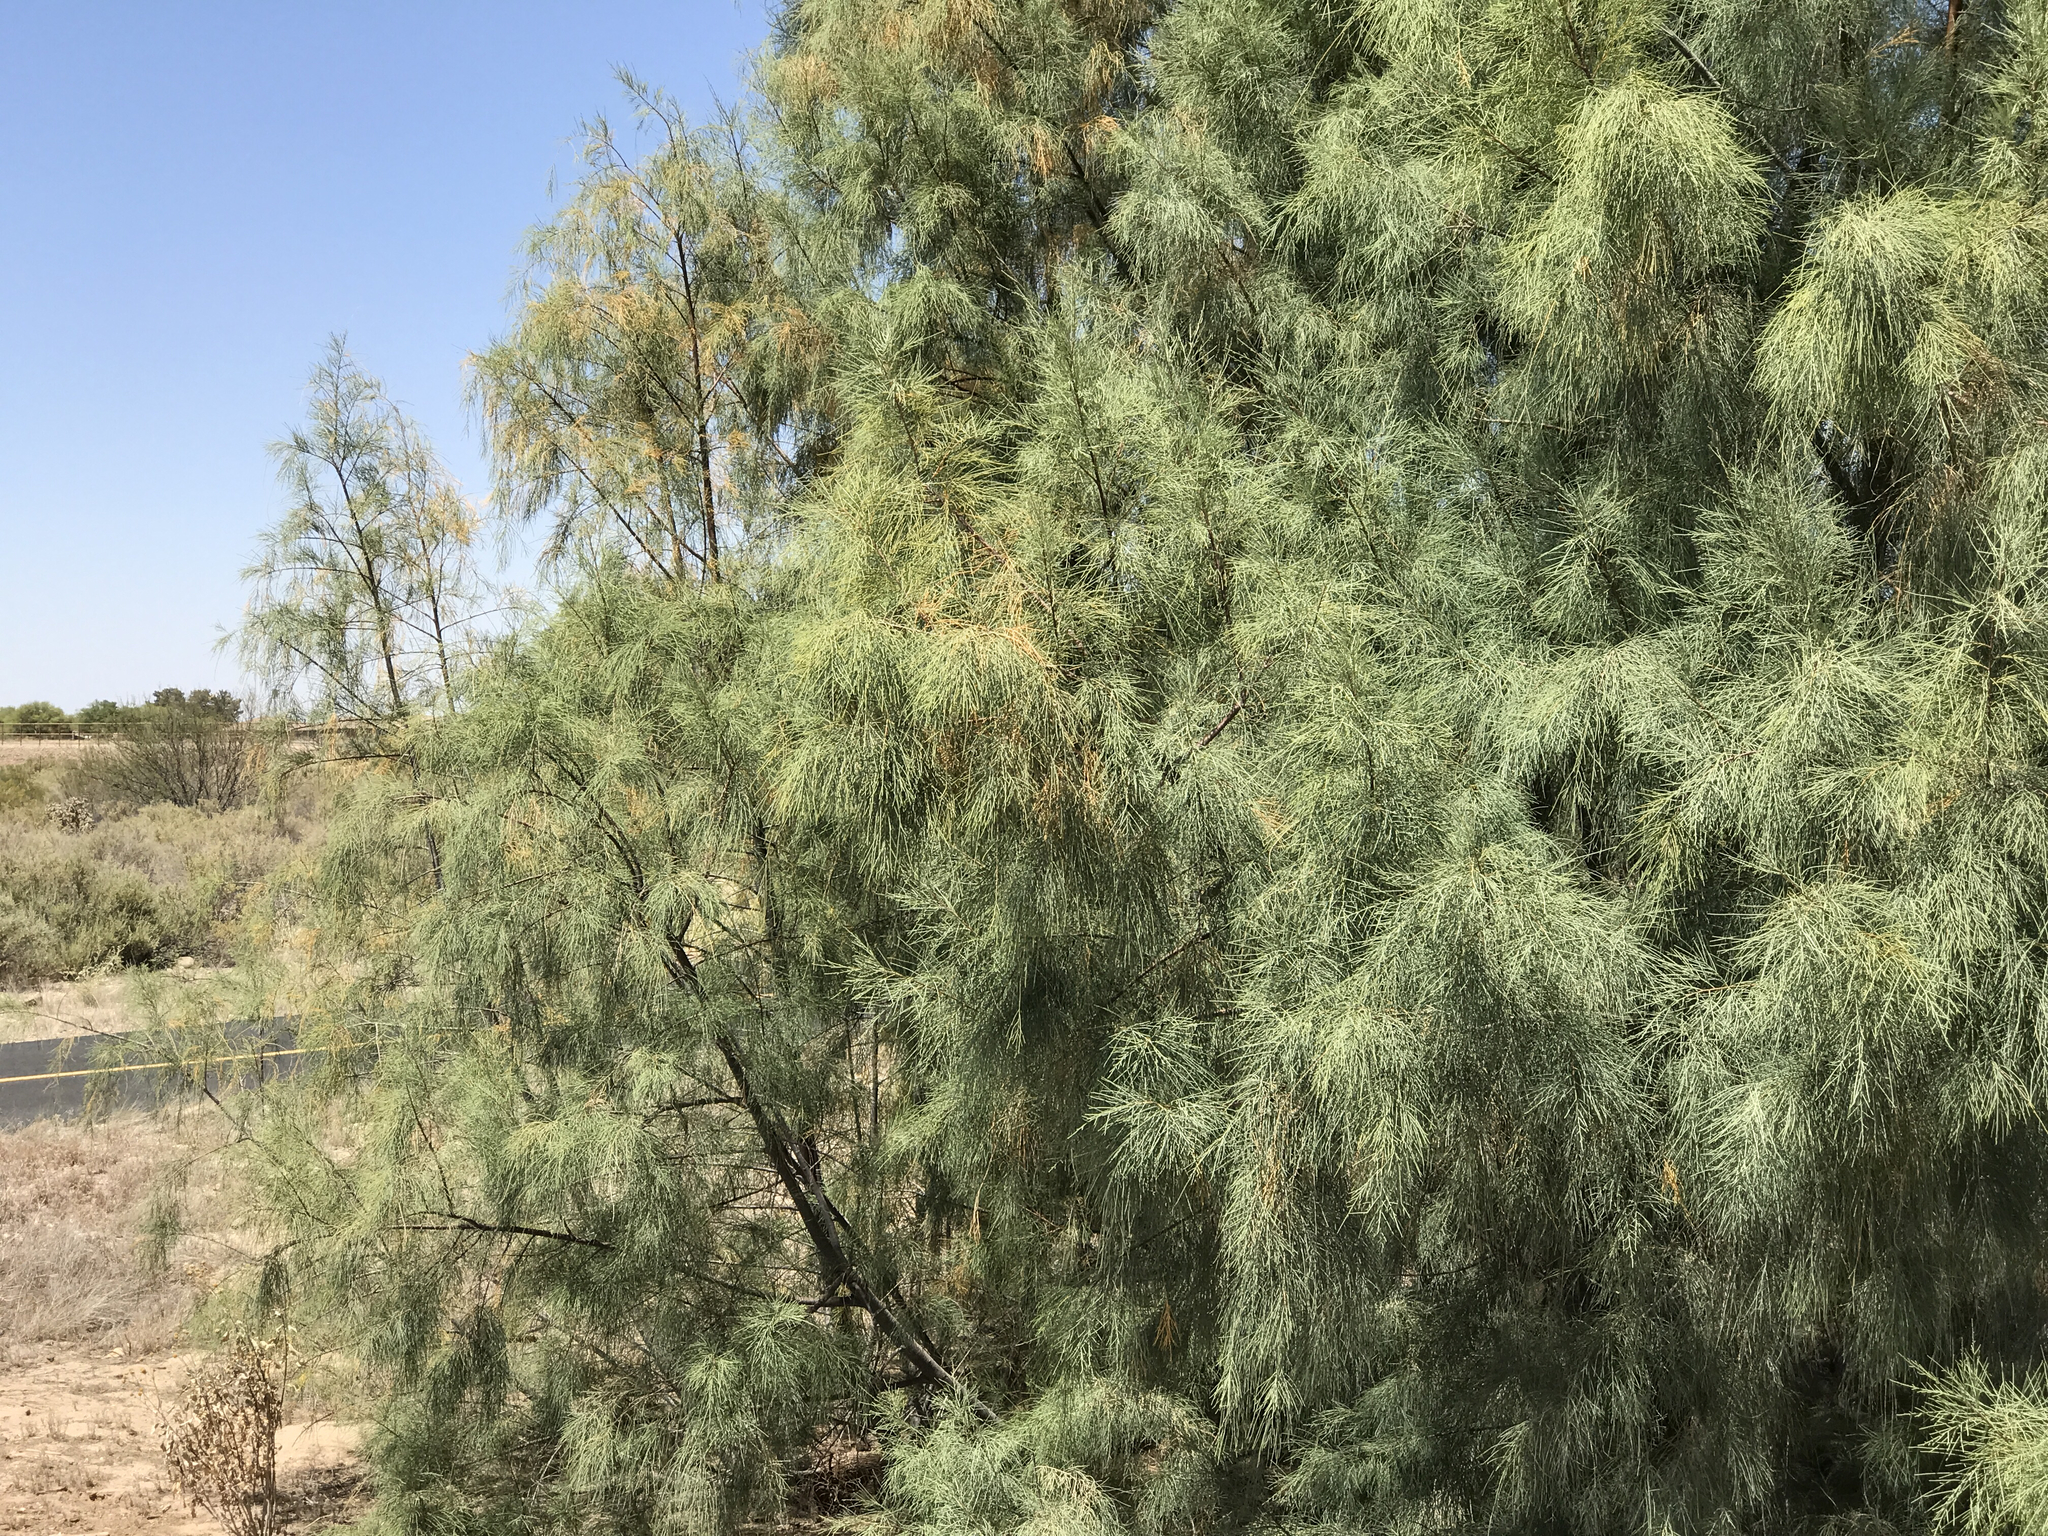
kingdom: Plantae
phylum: Tracheophyta
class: Magnoliopsida
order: Caryophyllales
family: Tamaricaceae
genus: Tamarix
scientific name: Tamarix aphylla
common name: Athel tamarisk
